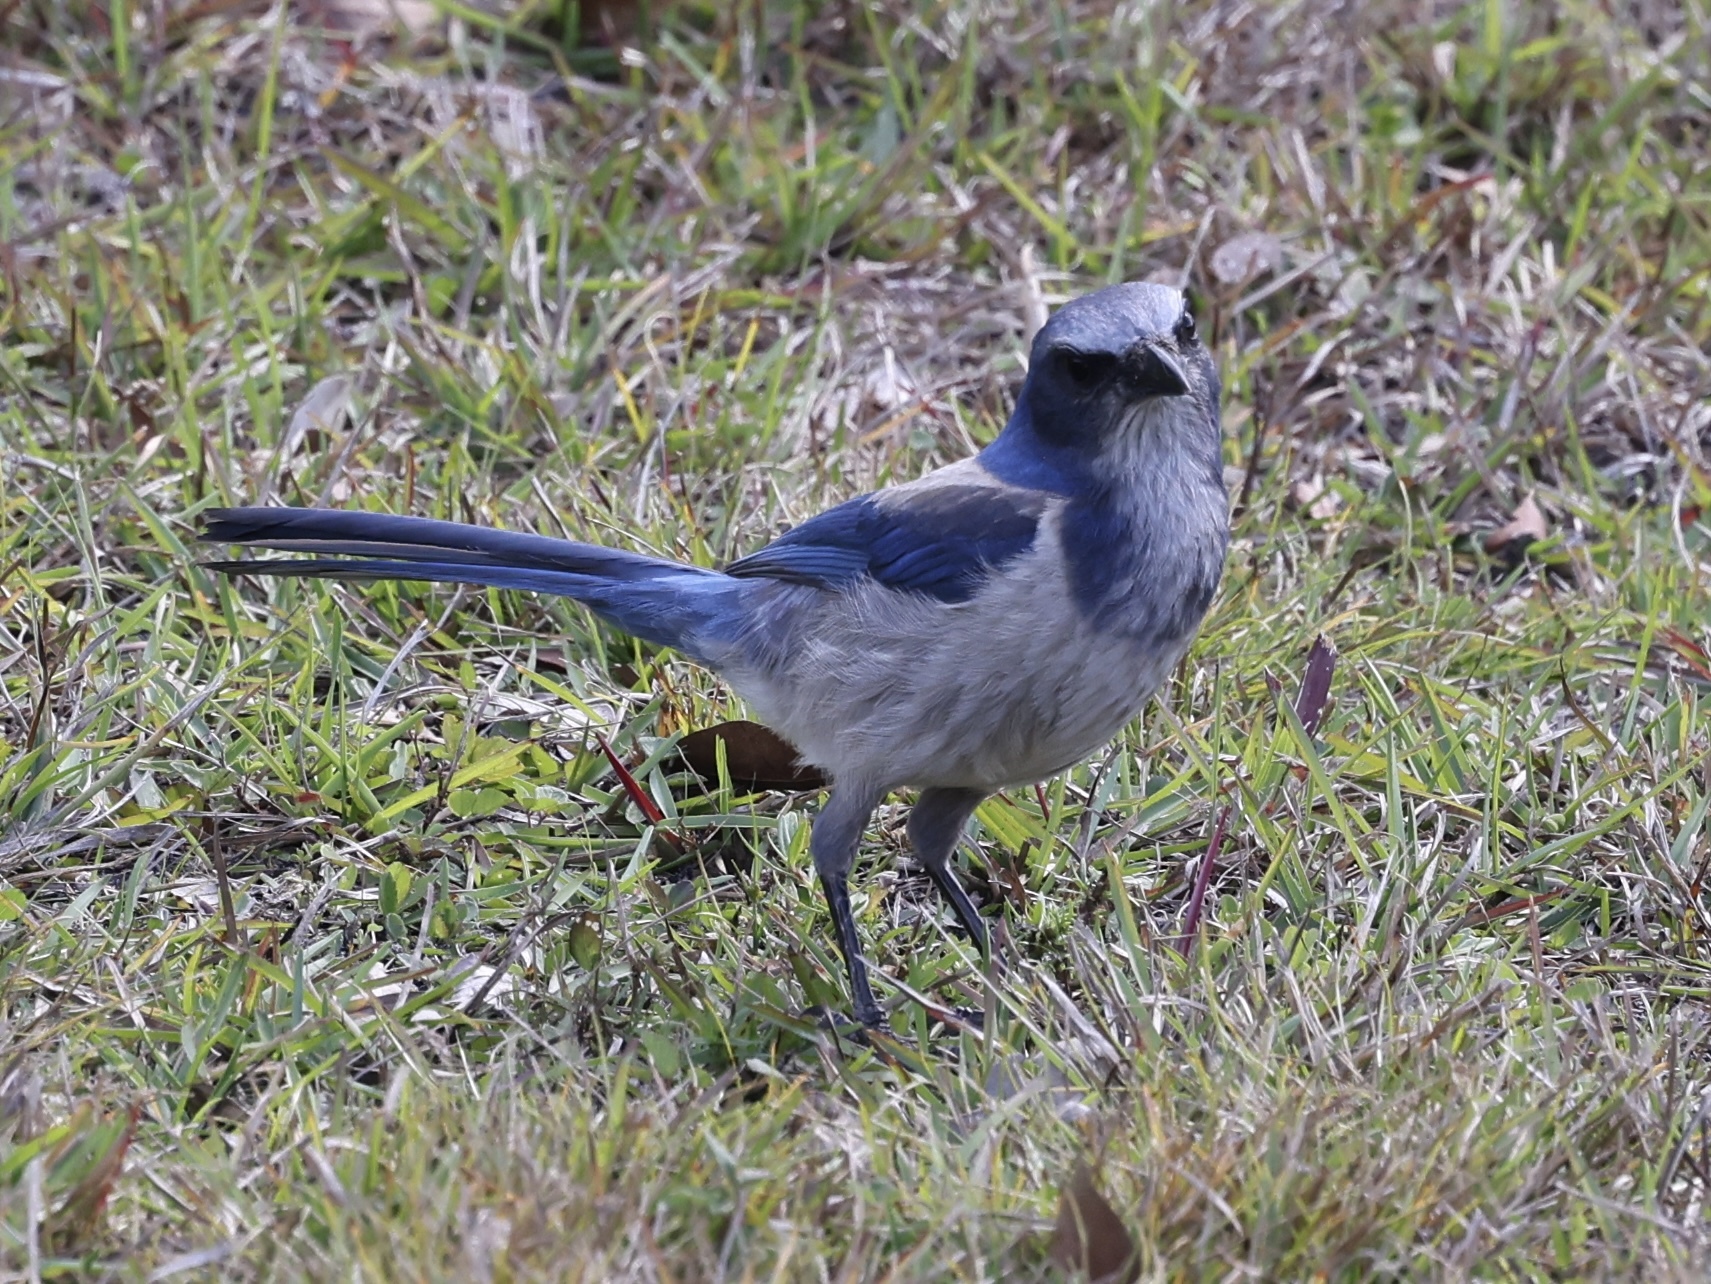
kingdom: Animalia
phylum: Chordata
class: Aves
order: Passeriformes
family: Corvidae
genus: Aphelocoma
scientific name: Aphelocoma coerulescens
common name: Florida scrub jay
